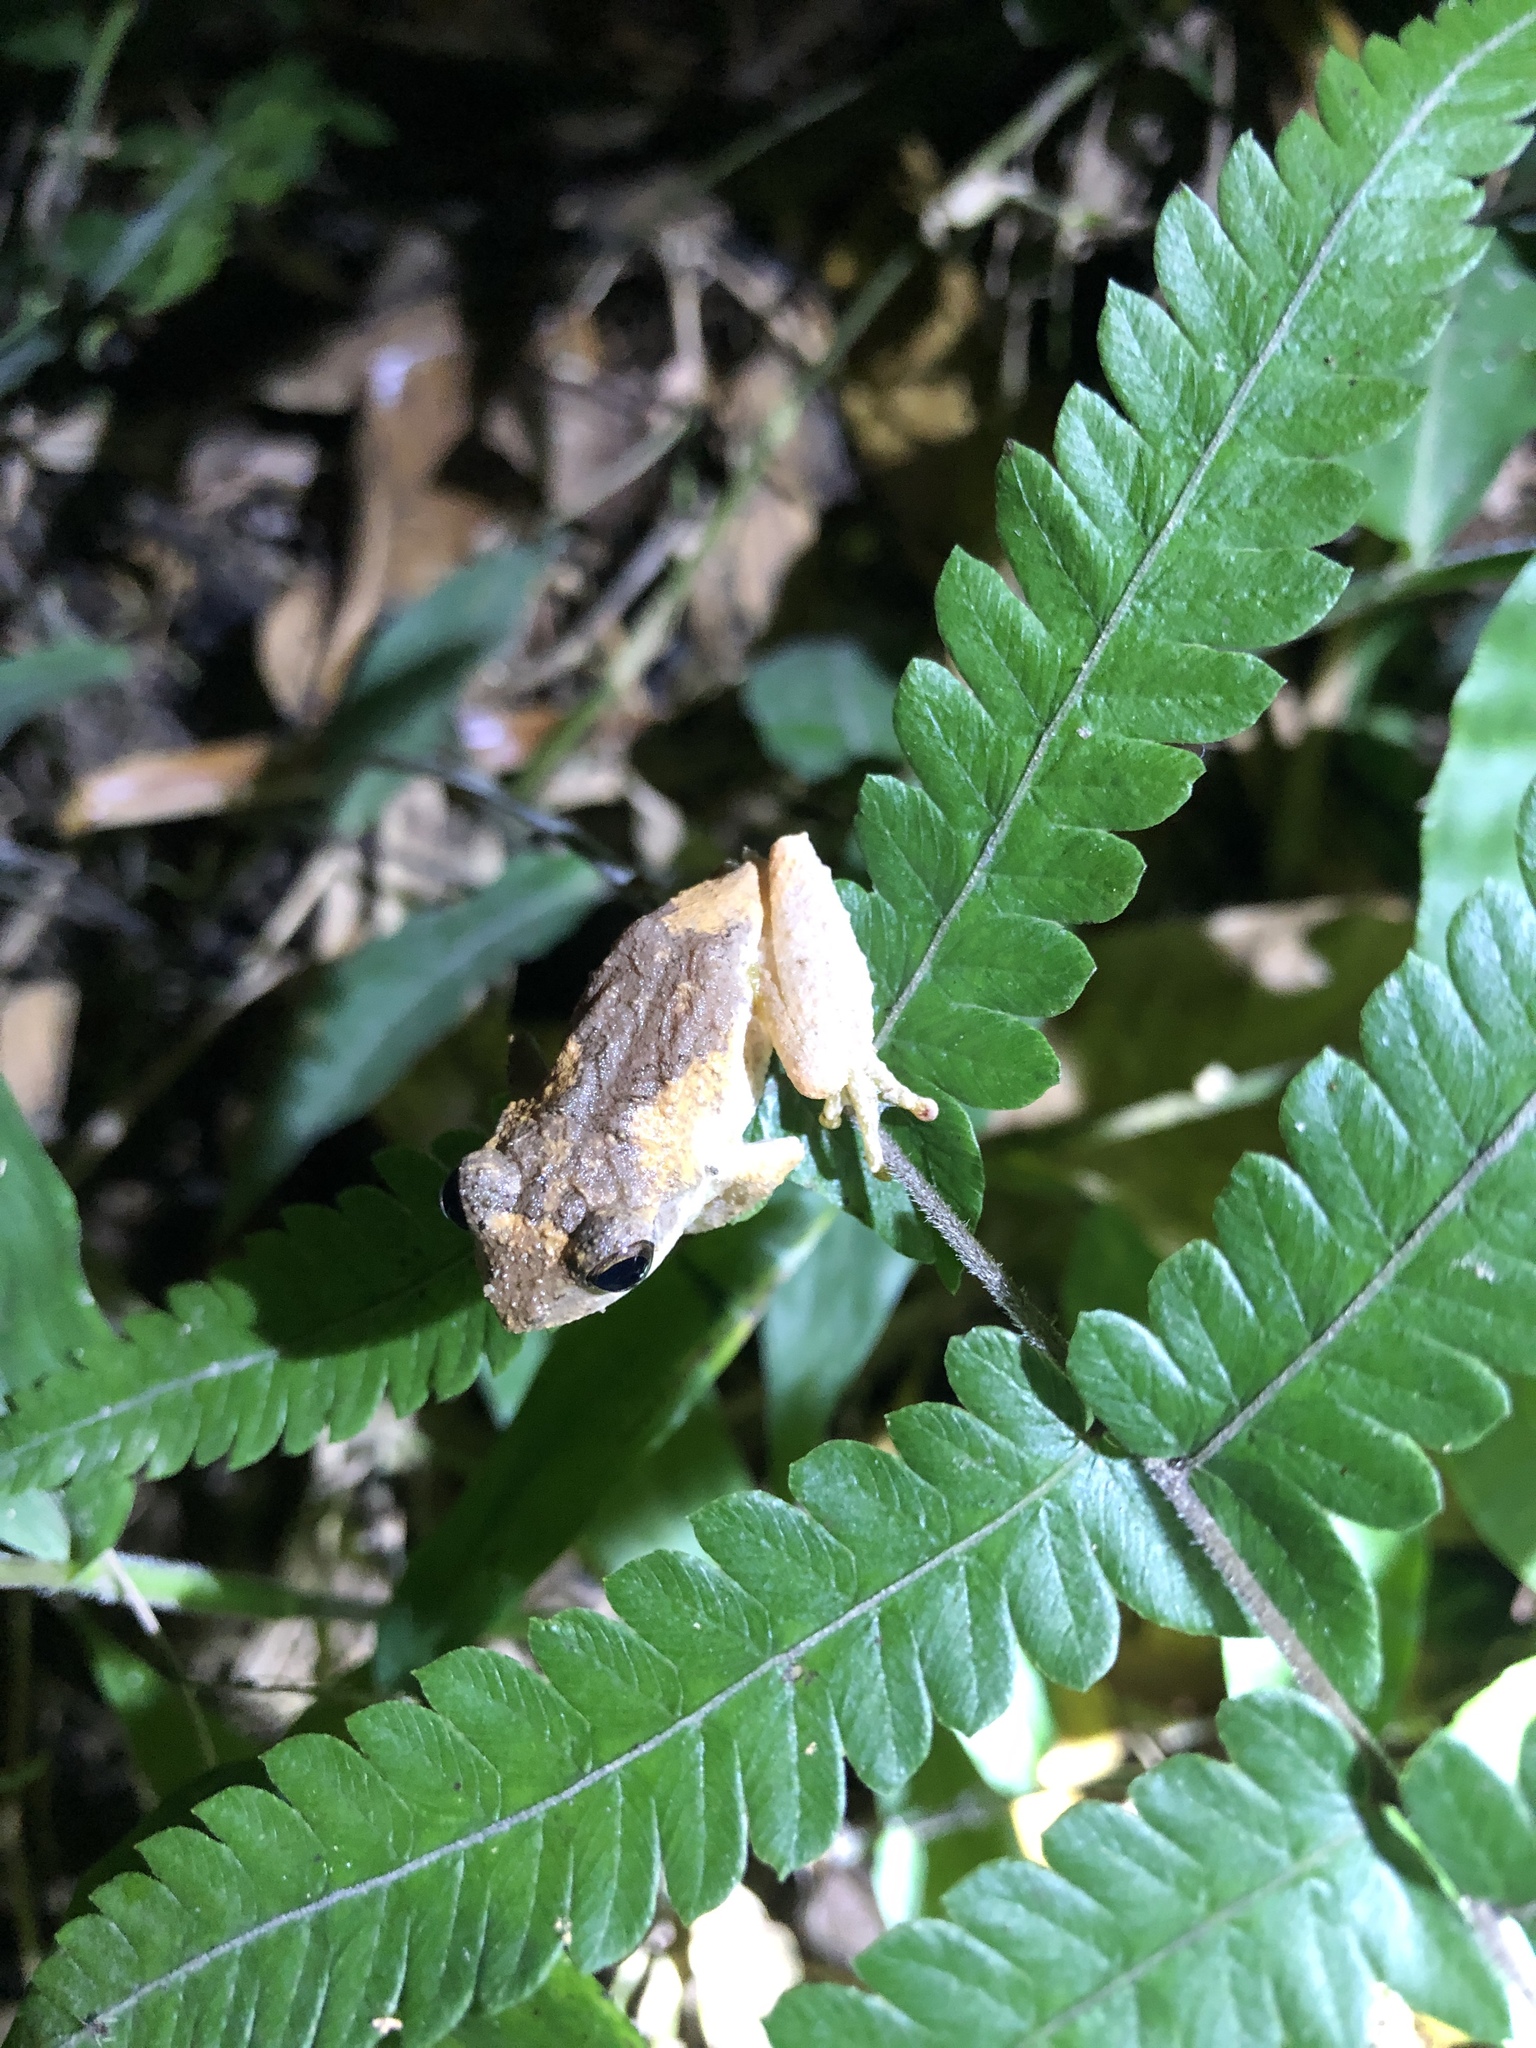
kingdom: Animalia
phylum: Chordata
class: Amphibia
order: Anura
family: Rhacophoridae
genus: Kurixalus
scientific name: Kurixalus idiootocus
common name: Temple treefrog
